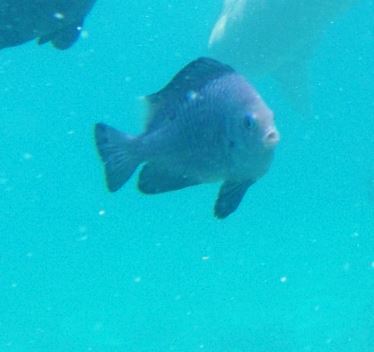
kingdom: Animalia
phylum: Chordata
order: Perciformes
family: Pomacentridae
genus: Dascyllus
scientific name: Dascyllus trimaculatus
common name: Threespot dascyllus
